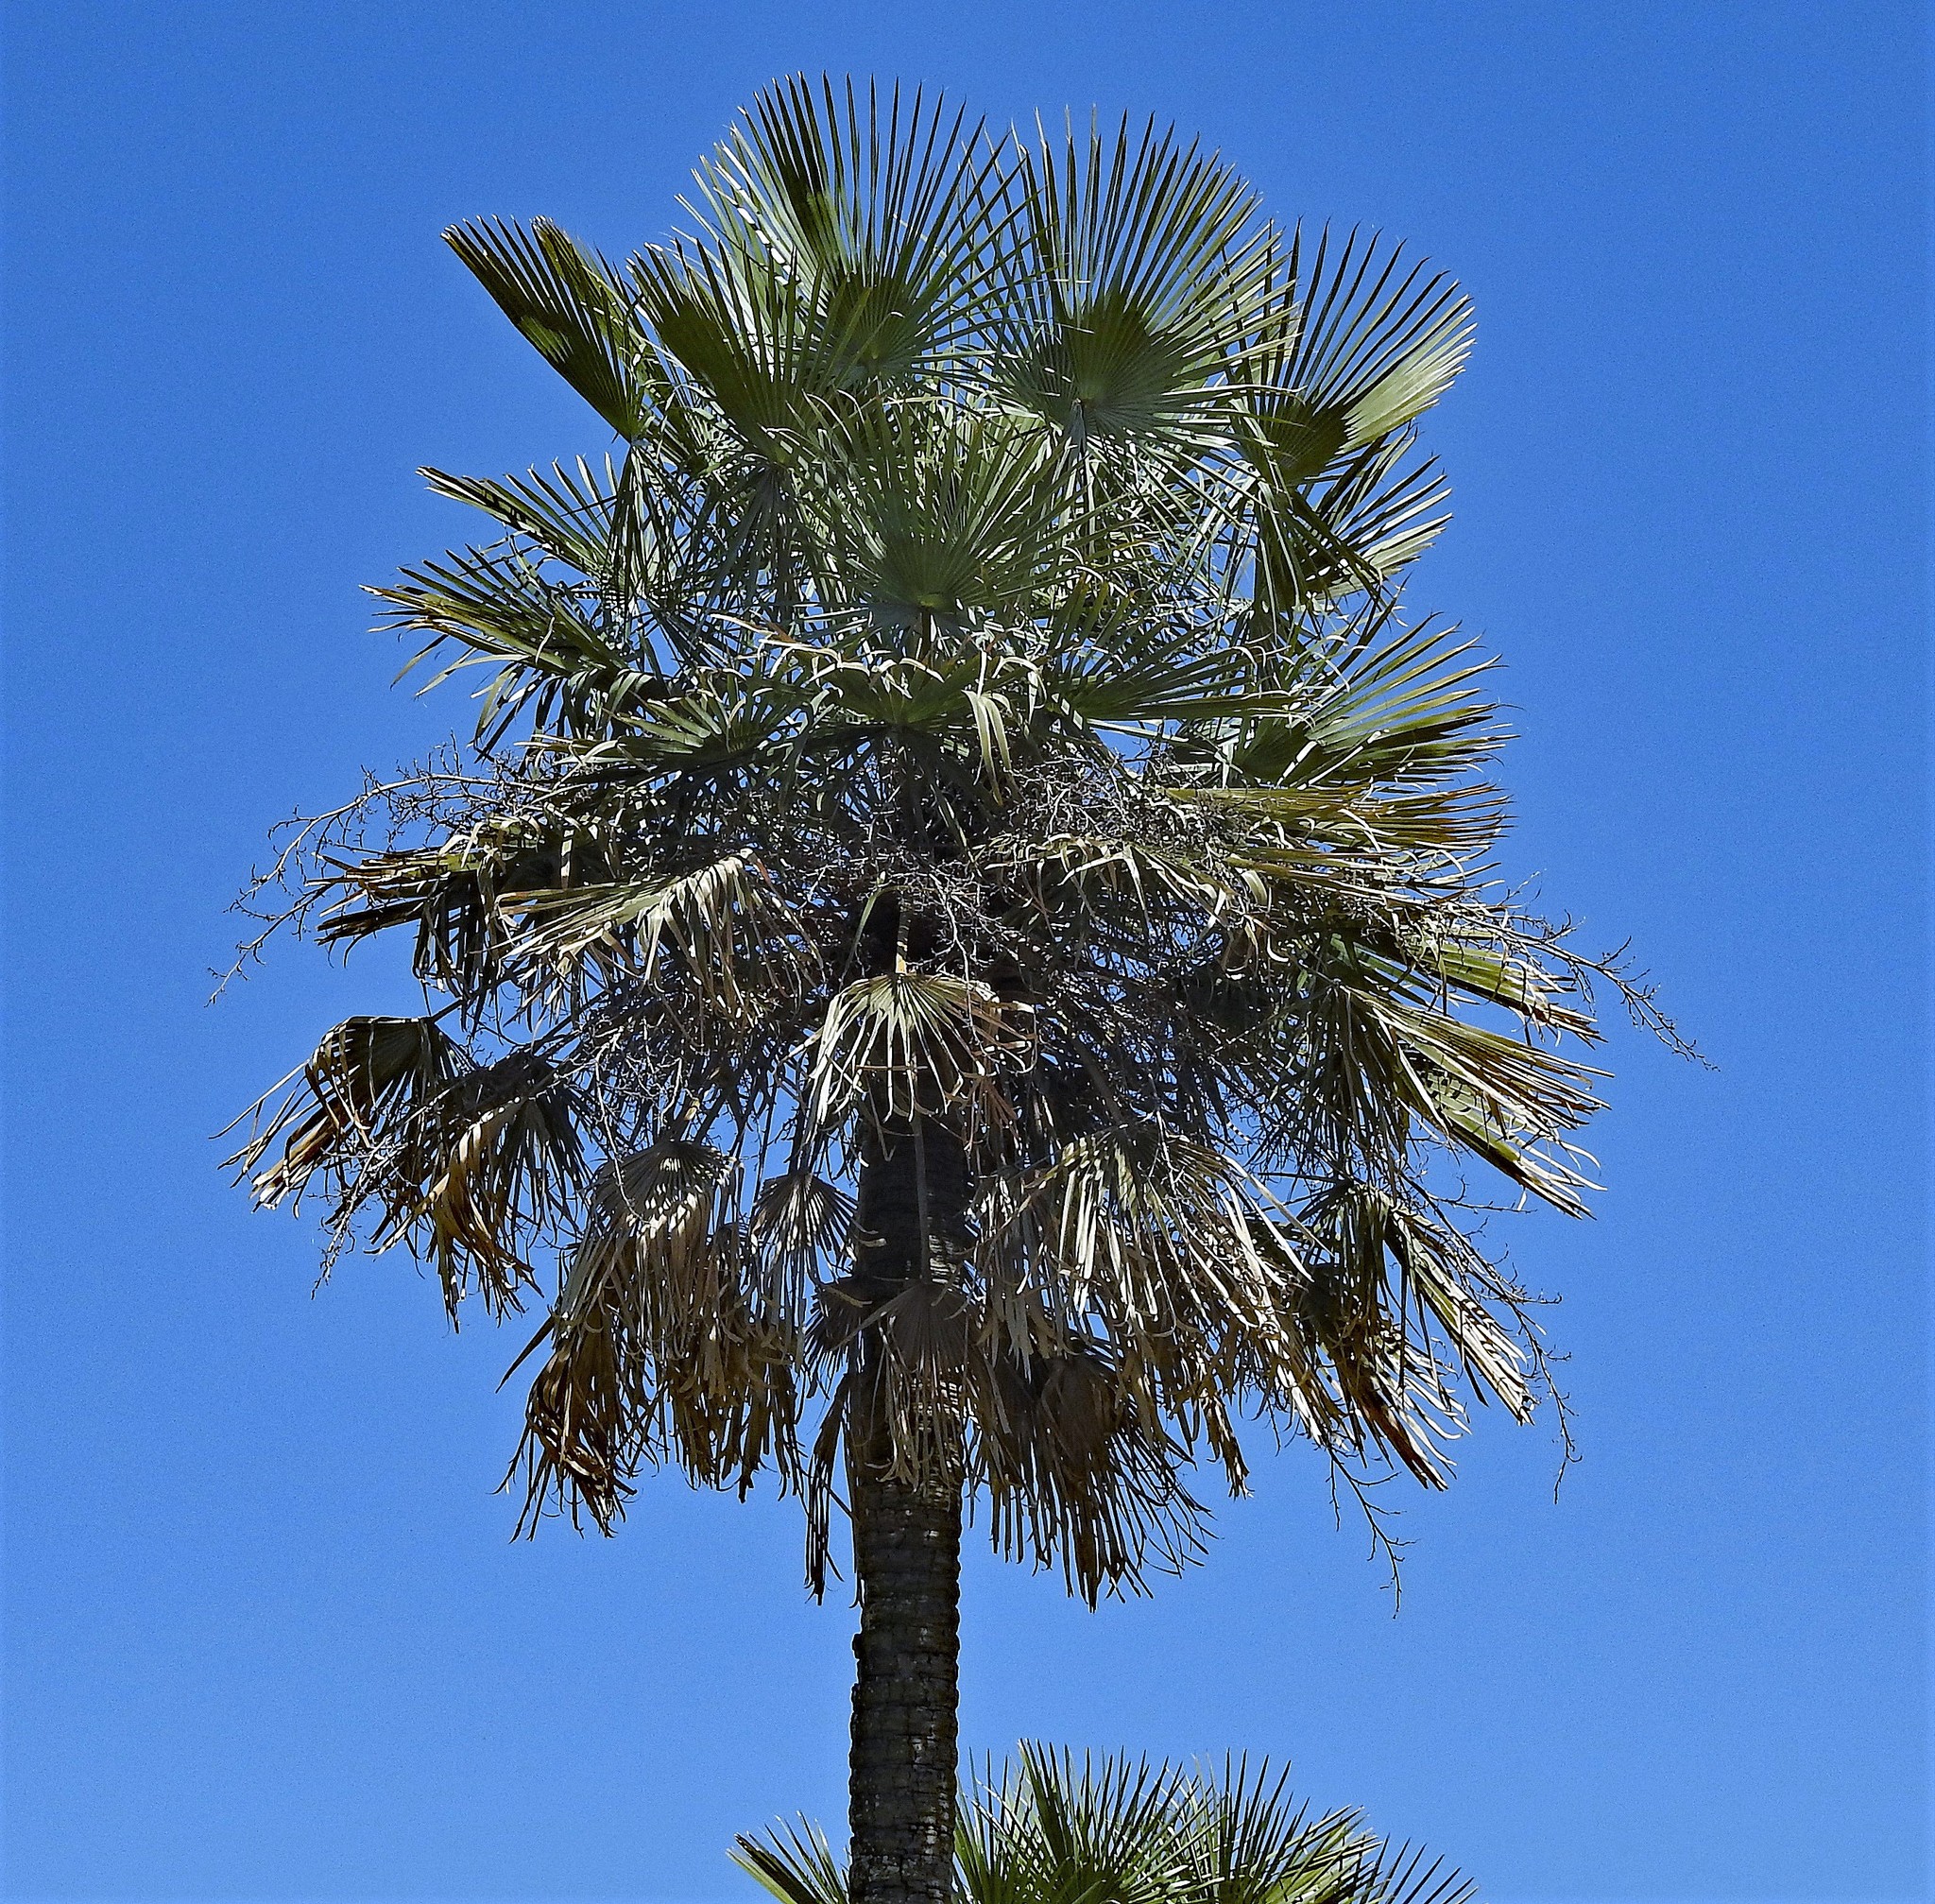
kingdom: Plantae
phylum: Tracheophyta
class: Liliopsida
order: Arecales
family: Arecaceae
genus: Copernicia
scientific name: Copernicia alba
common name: Caranday palm
